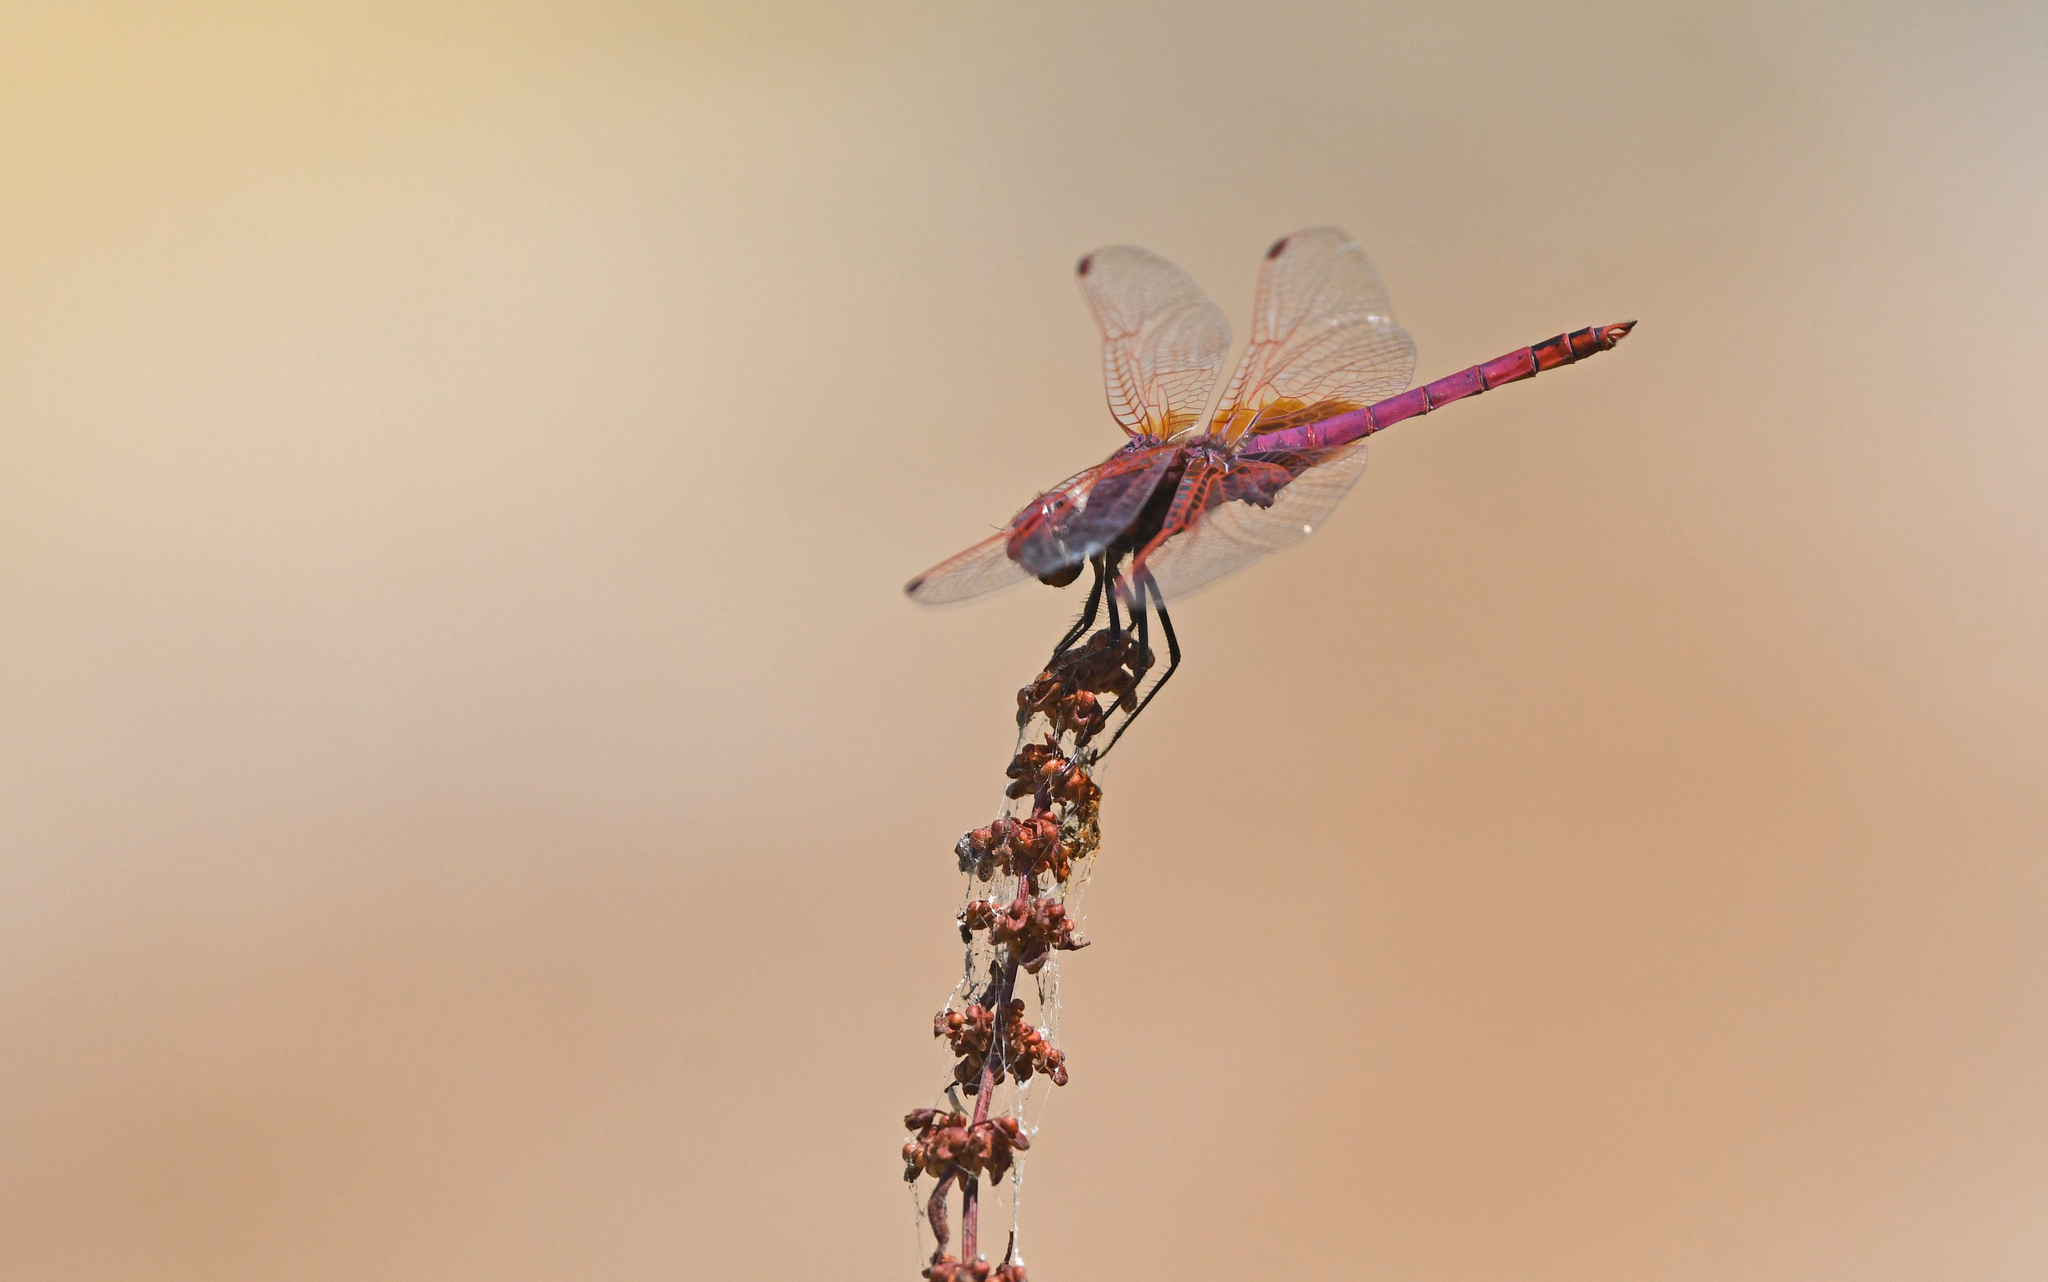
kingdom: Animalia
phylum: Arthropoda
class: Insecta
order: Odonata
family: Libellulidae
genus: Trithemis
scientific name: Trithemis annulata
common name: Violet dropwing
